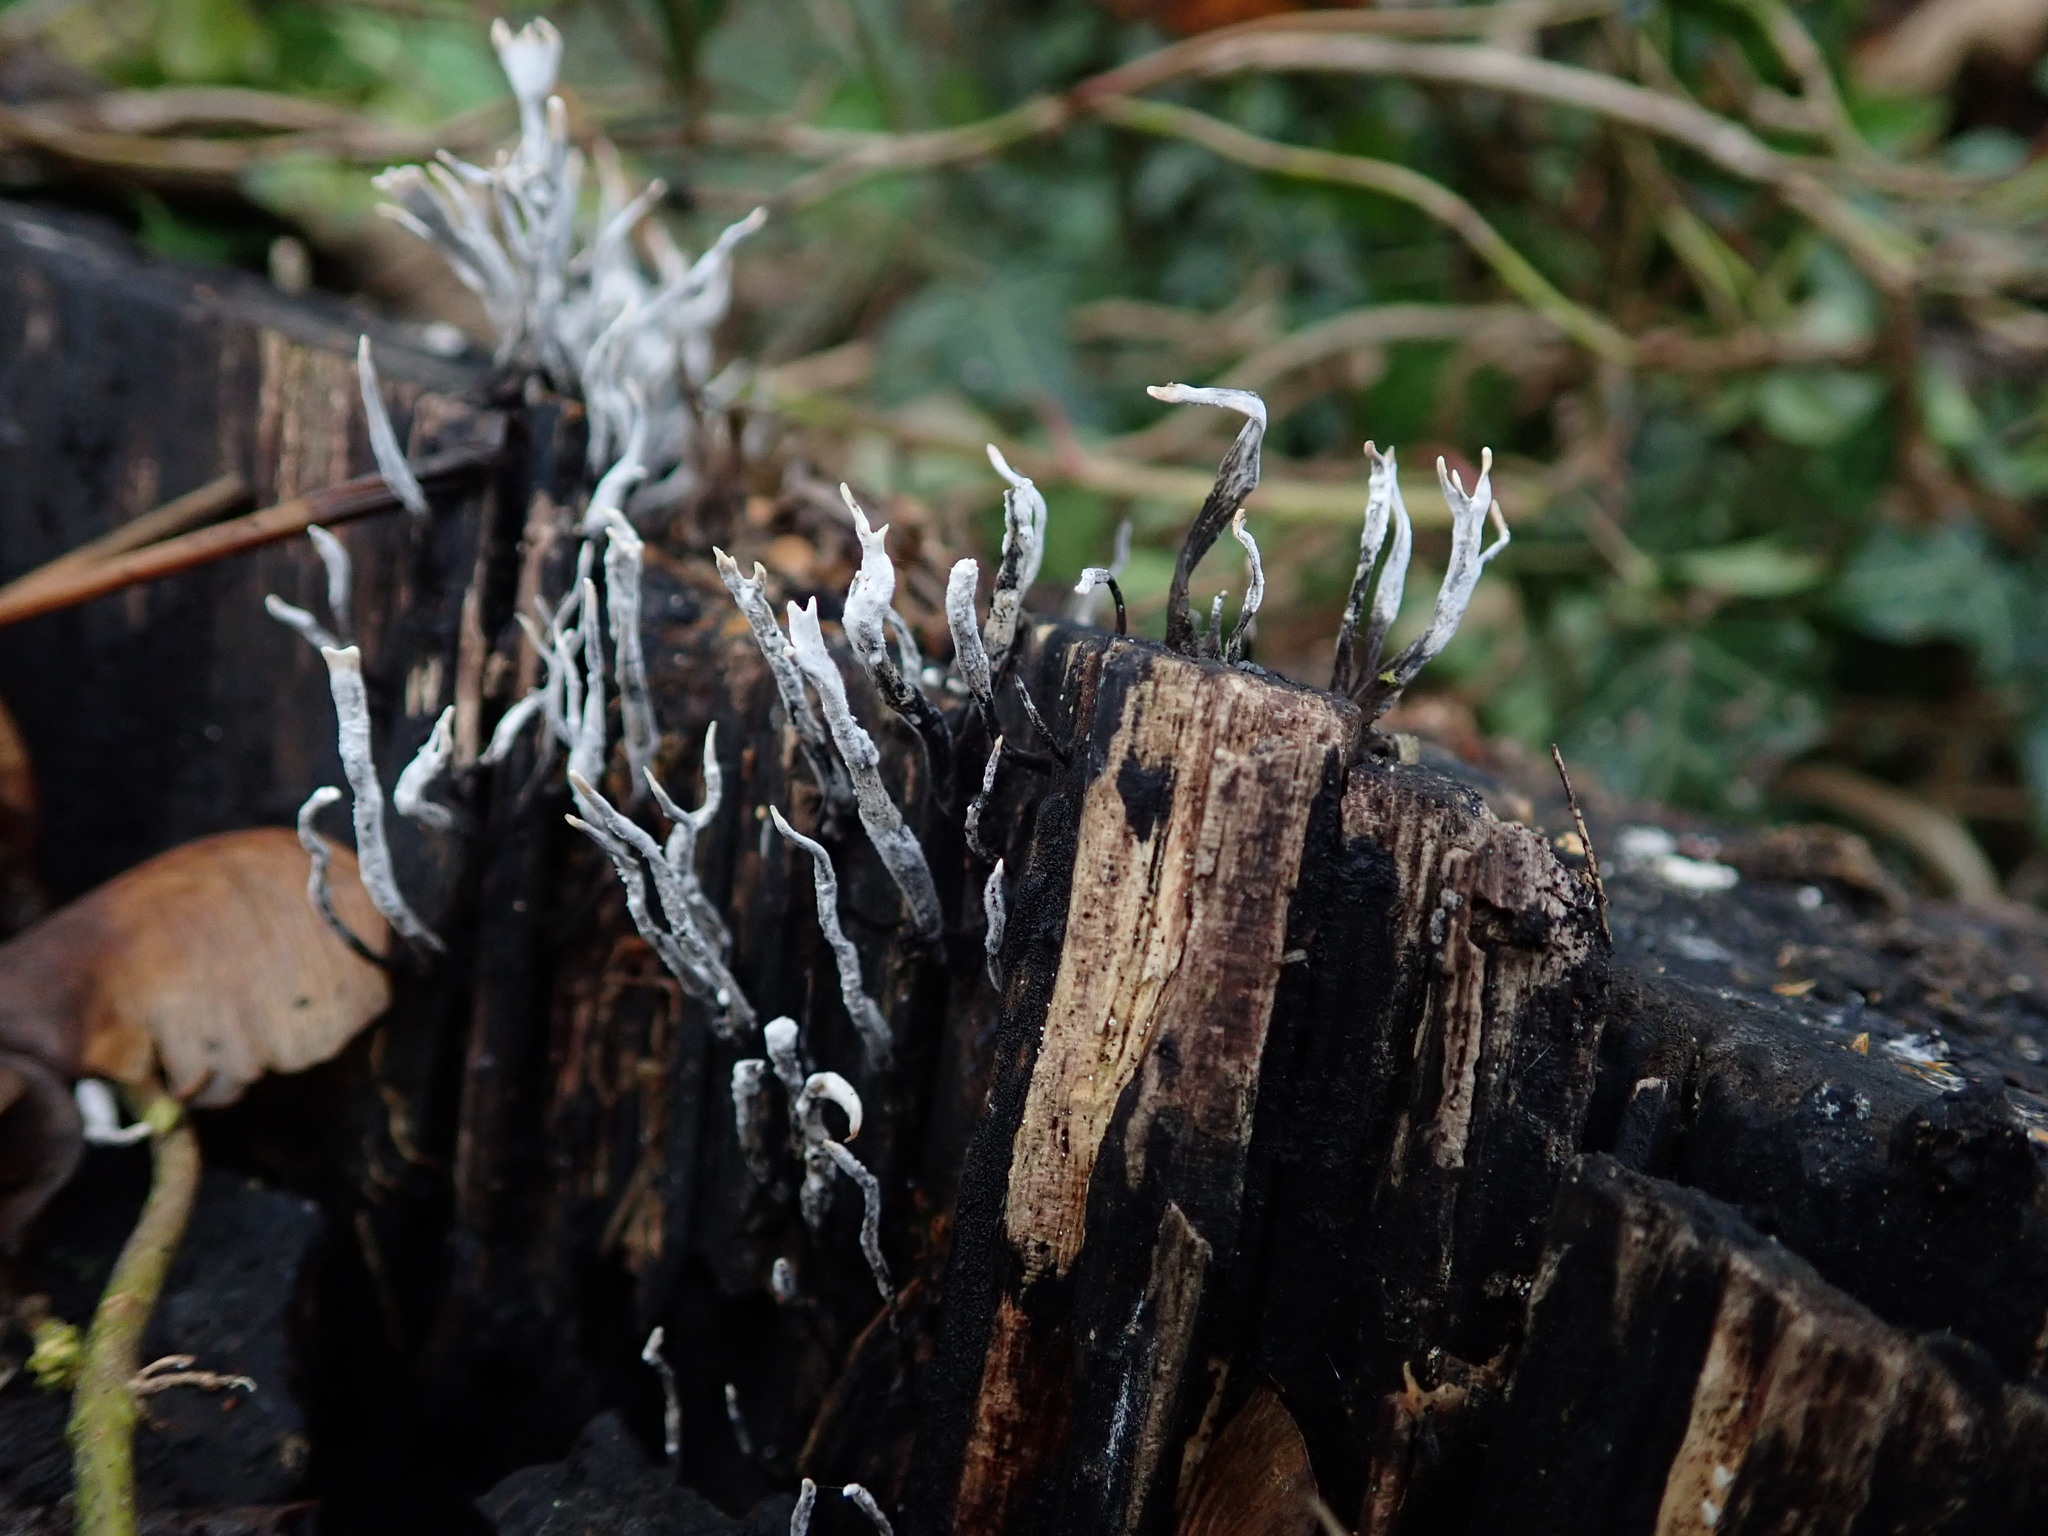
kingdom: Fungi
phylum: Ascomycota
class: Sordariomycetes
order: Xylariales
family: Xylariaceae
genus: Xylaria
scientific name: Xylaria hypoxylon
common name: Candle-snuff fungus
